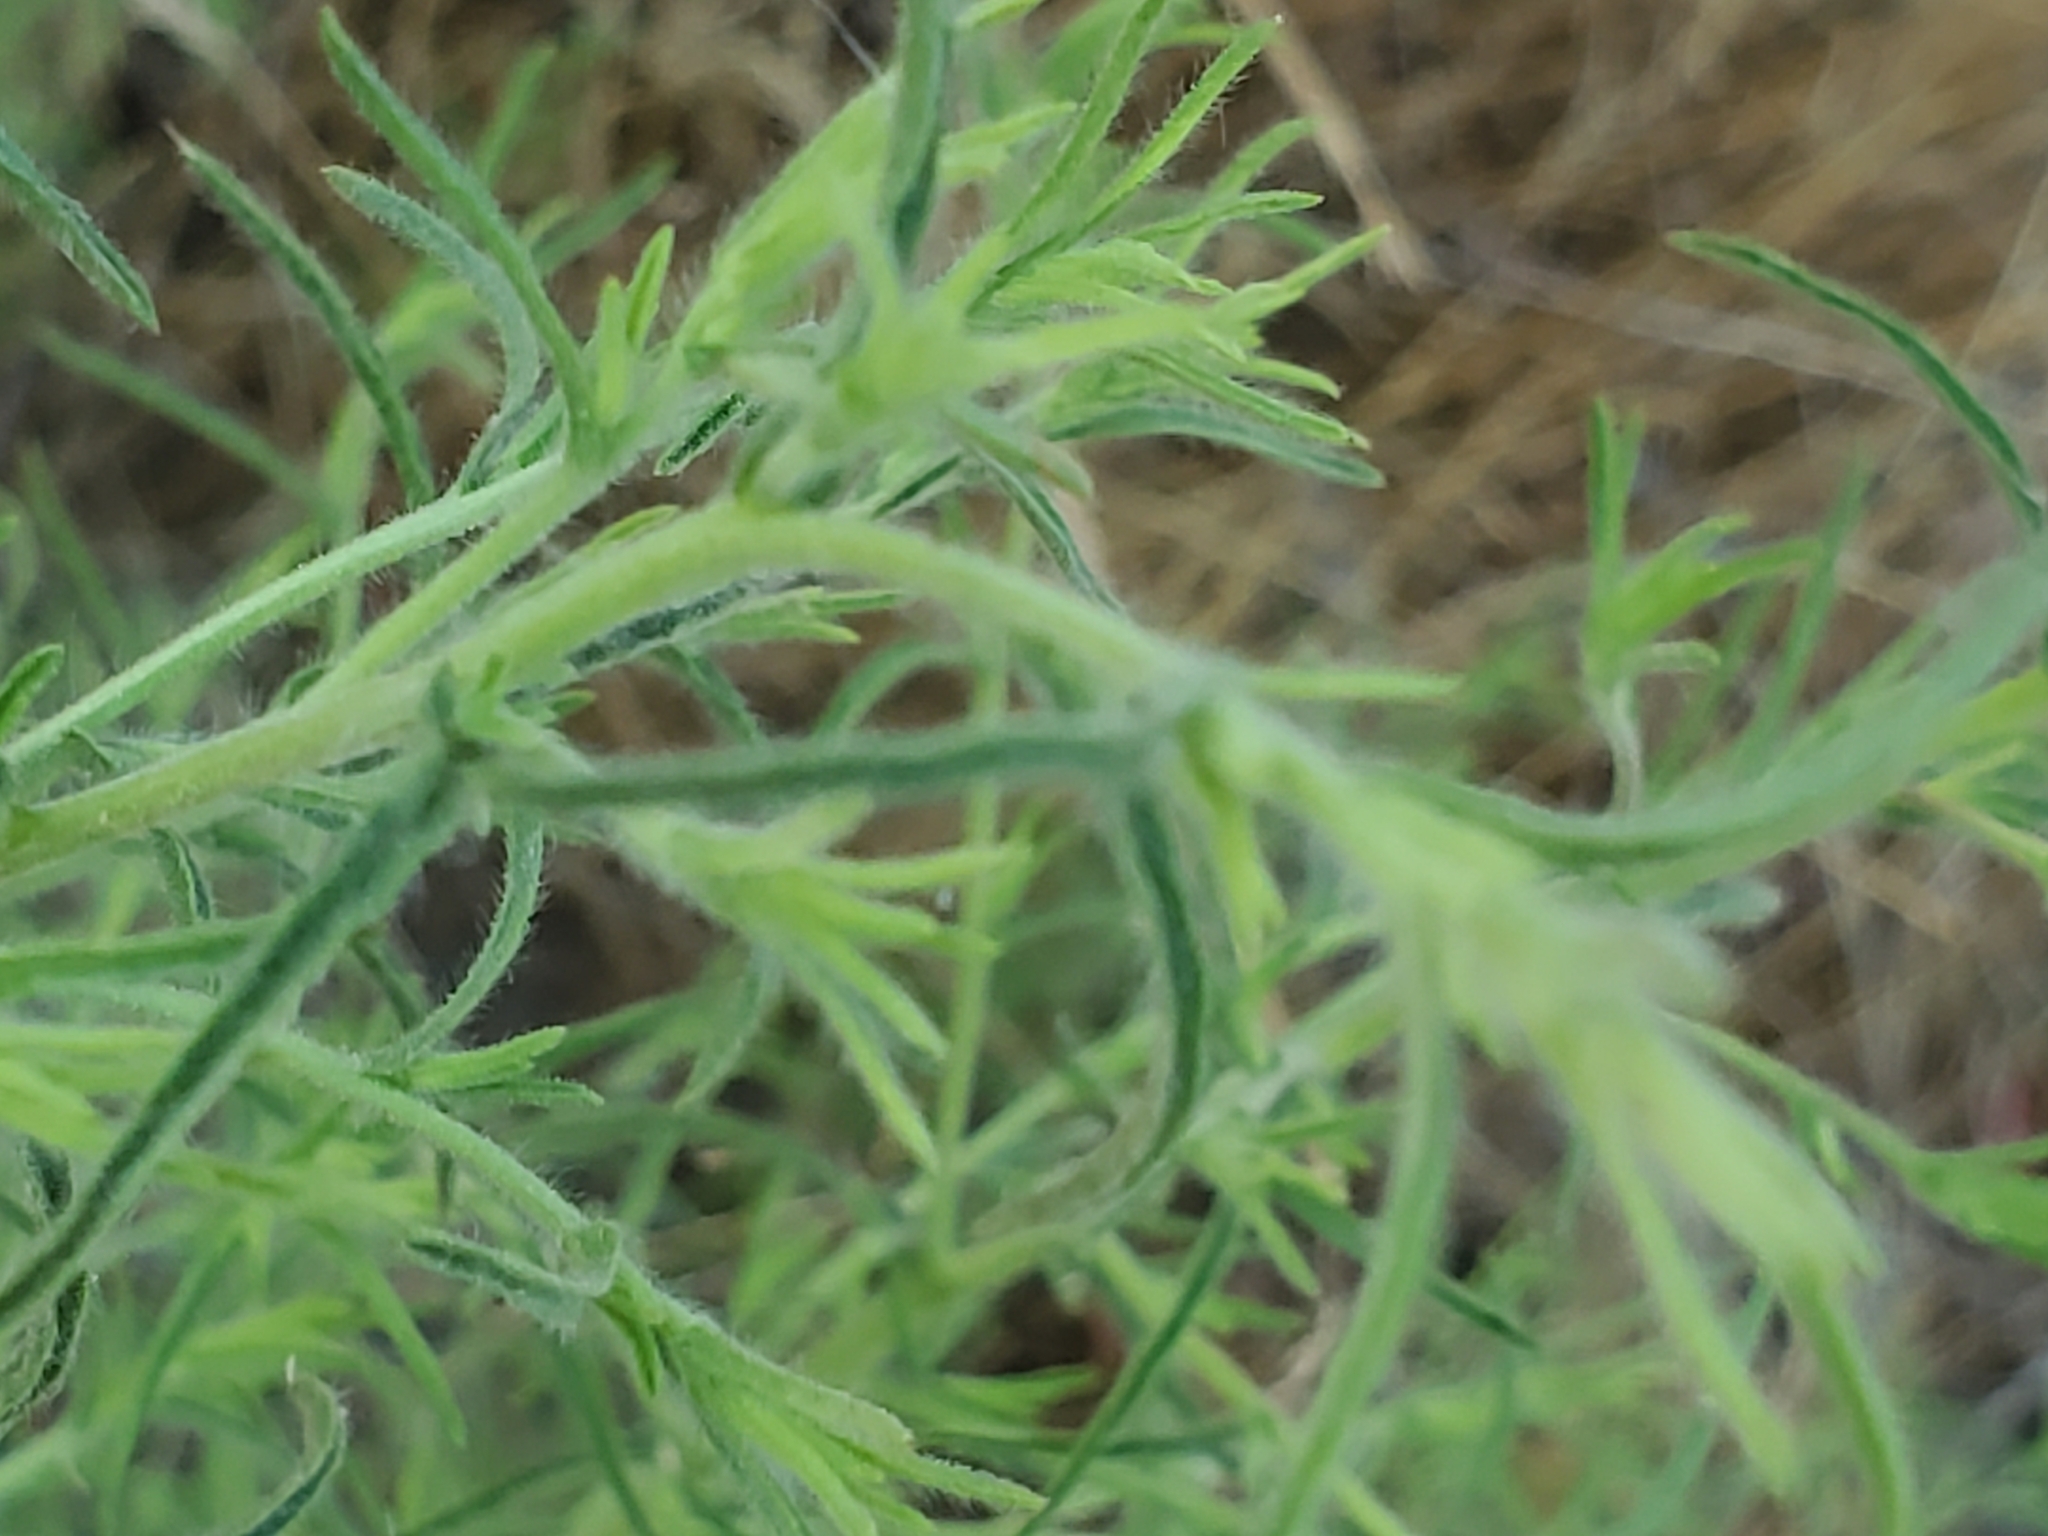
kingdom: Plantae
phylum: Tracheophyta
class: Magnoliopsida
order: Asterales
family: Asteraceae
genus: Dittrichia
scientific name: Dittrichia graveolens
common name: Stinking fleabane
